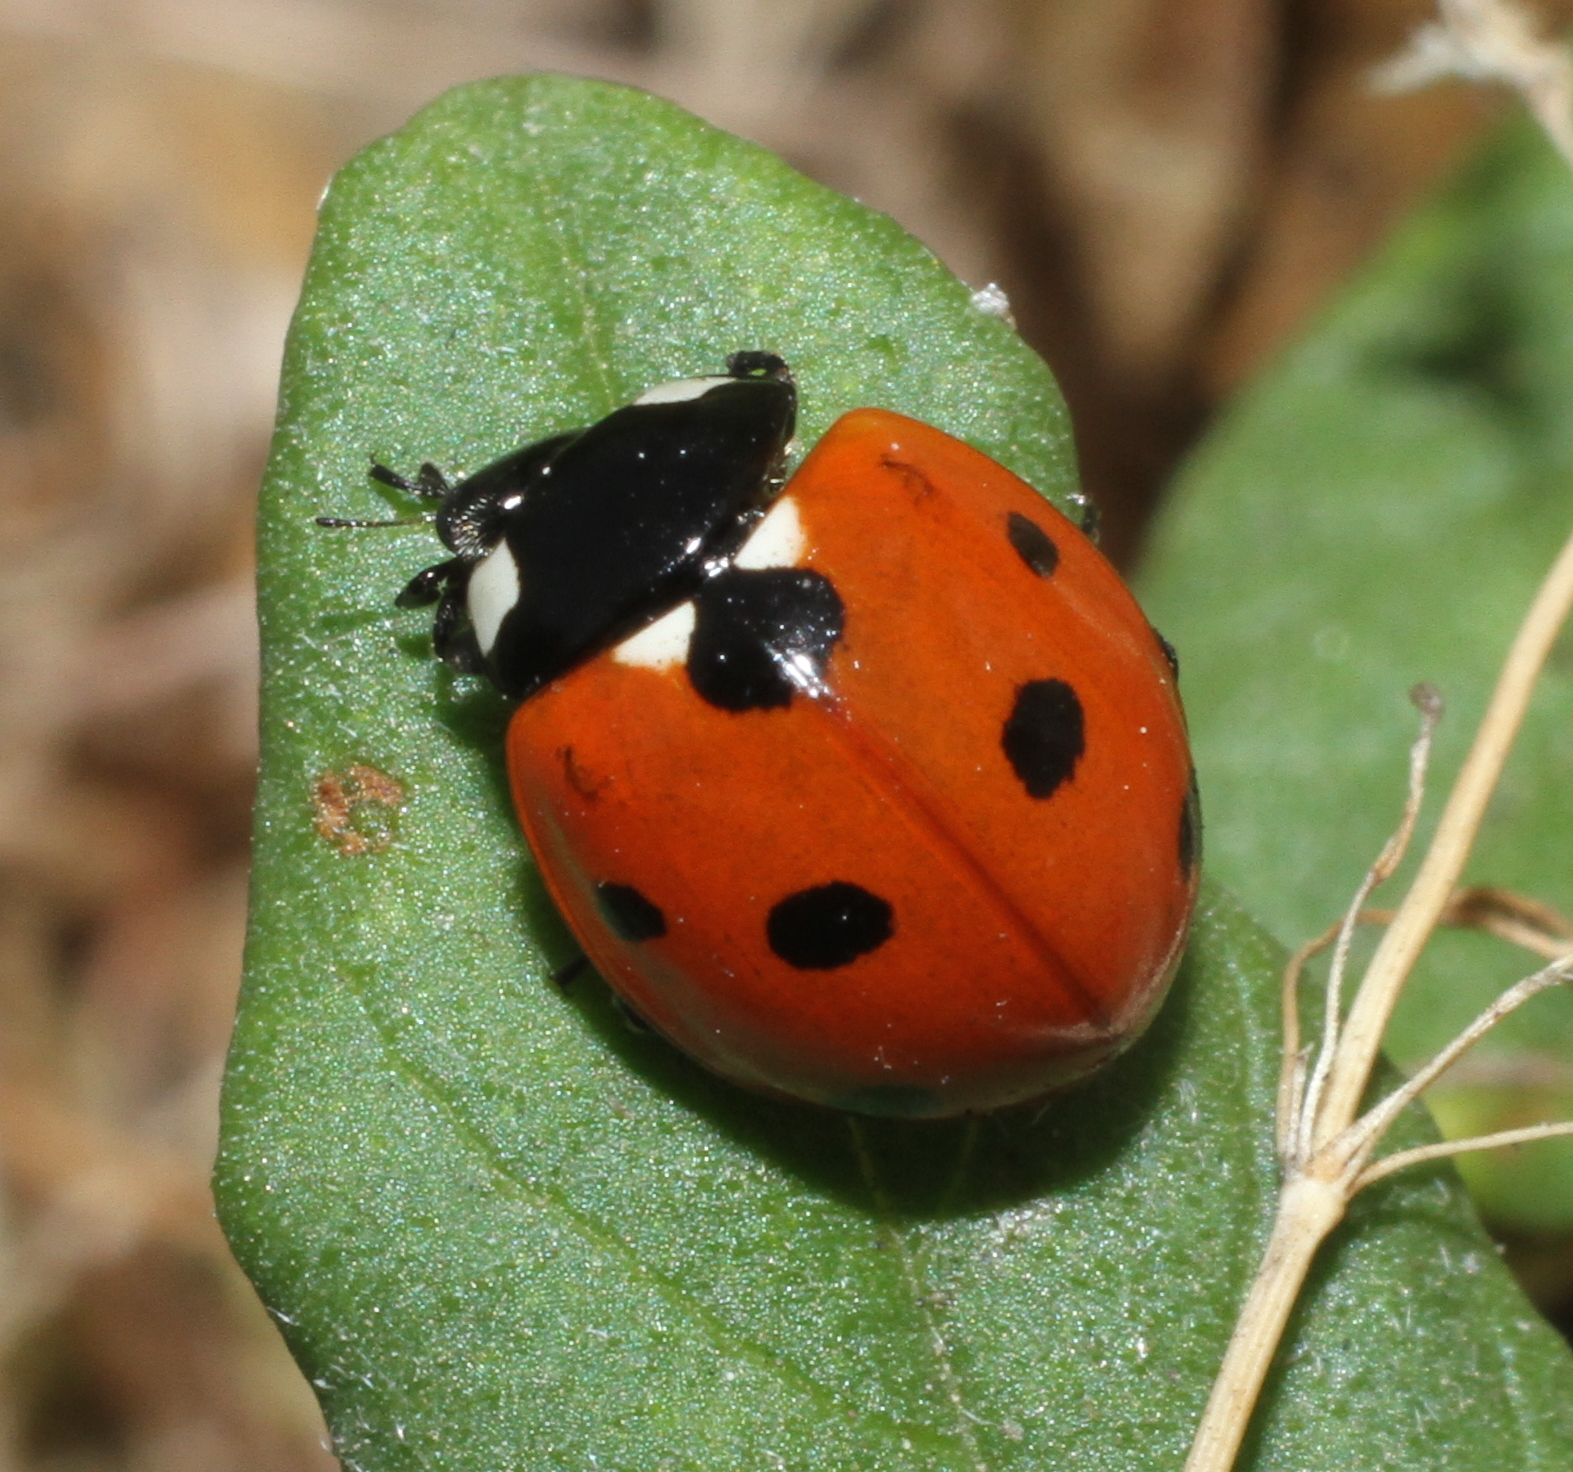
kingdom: Animalia
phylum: Arthropoda
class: Insecta
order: Coleoptera
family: Coccinellidae
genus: Coccinella
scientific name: Coccinella septempunctata
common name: Sevenspotted lady beetle
